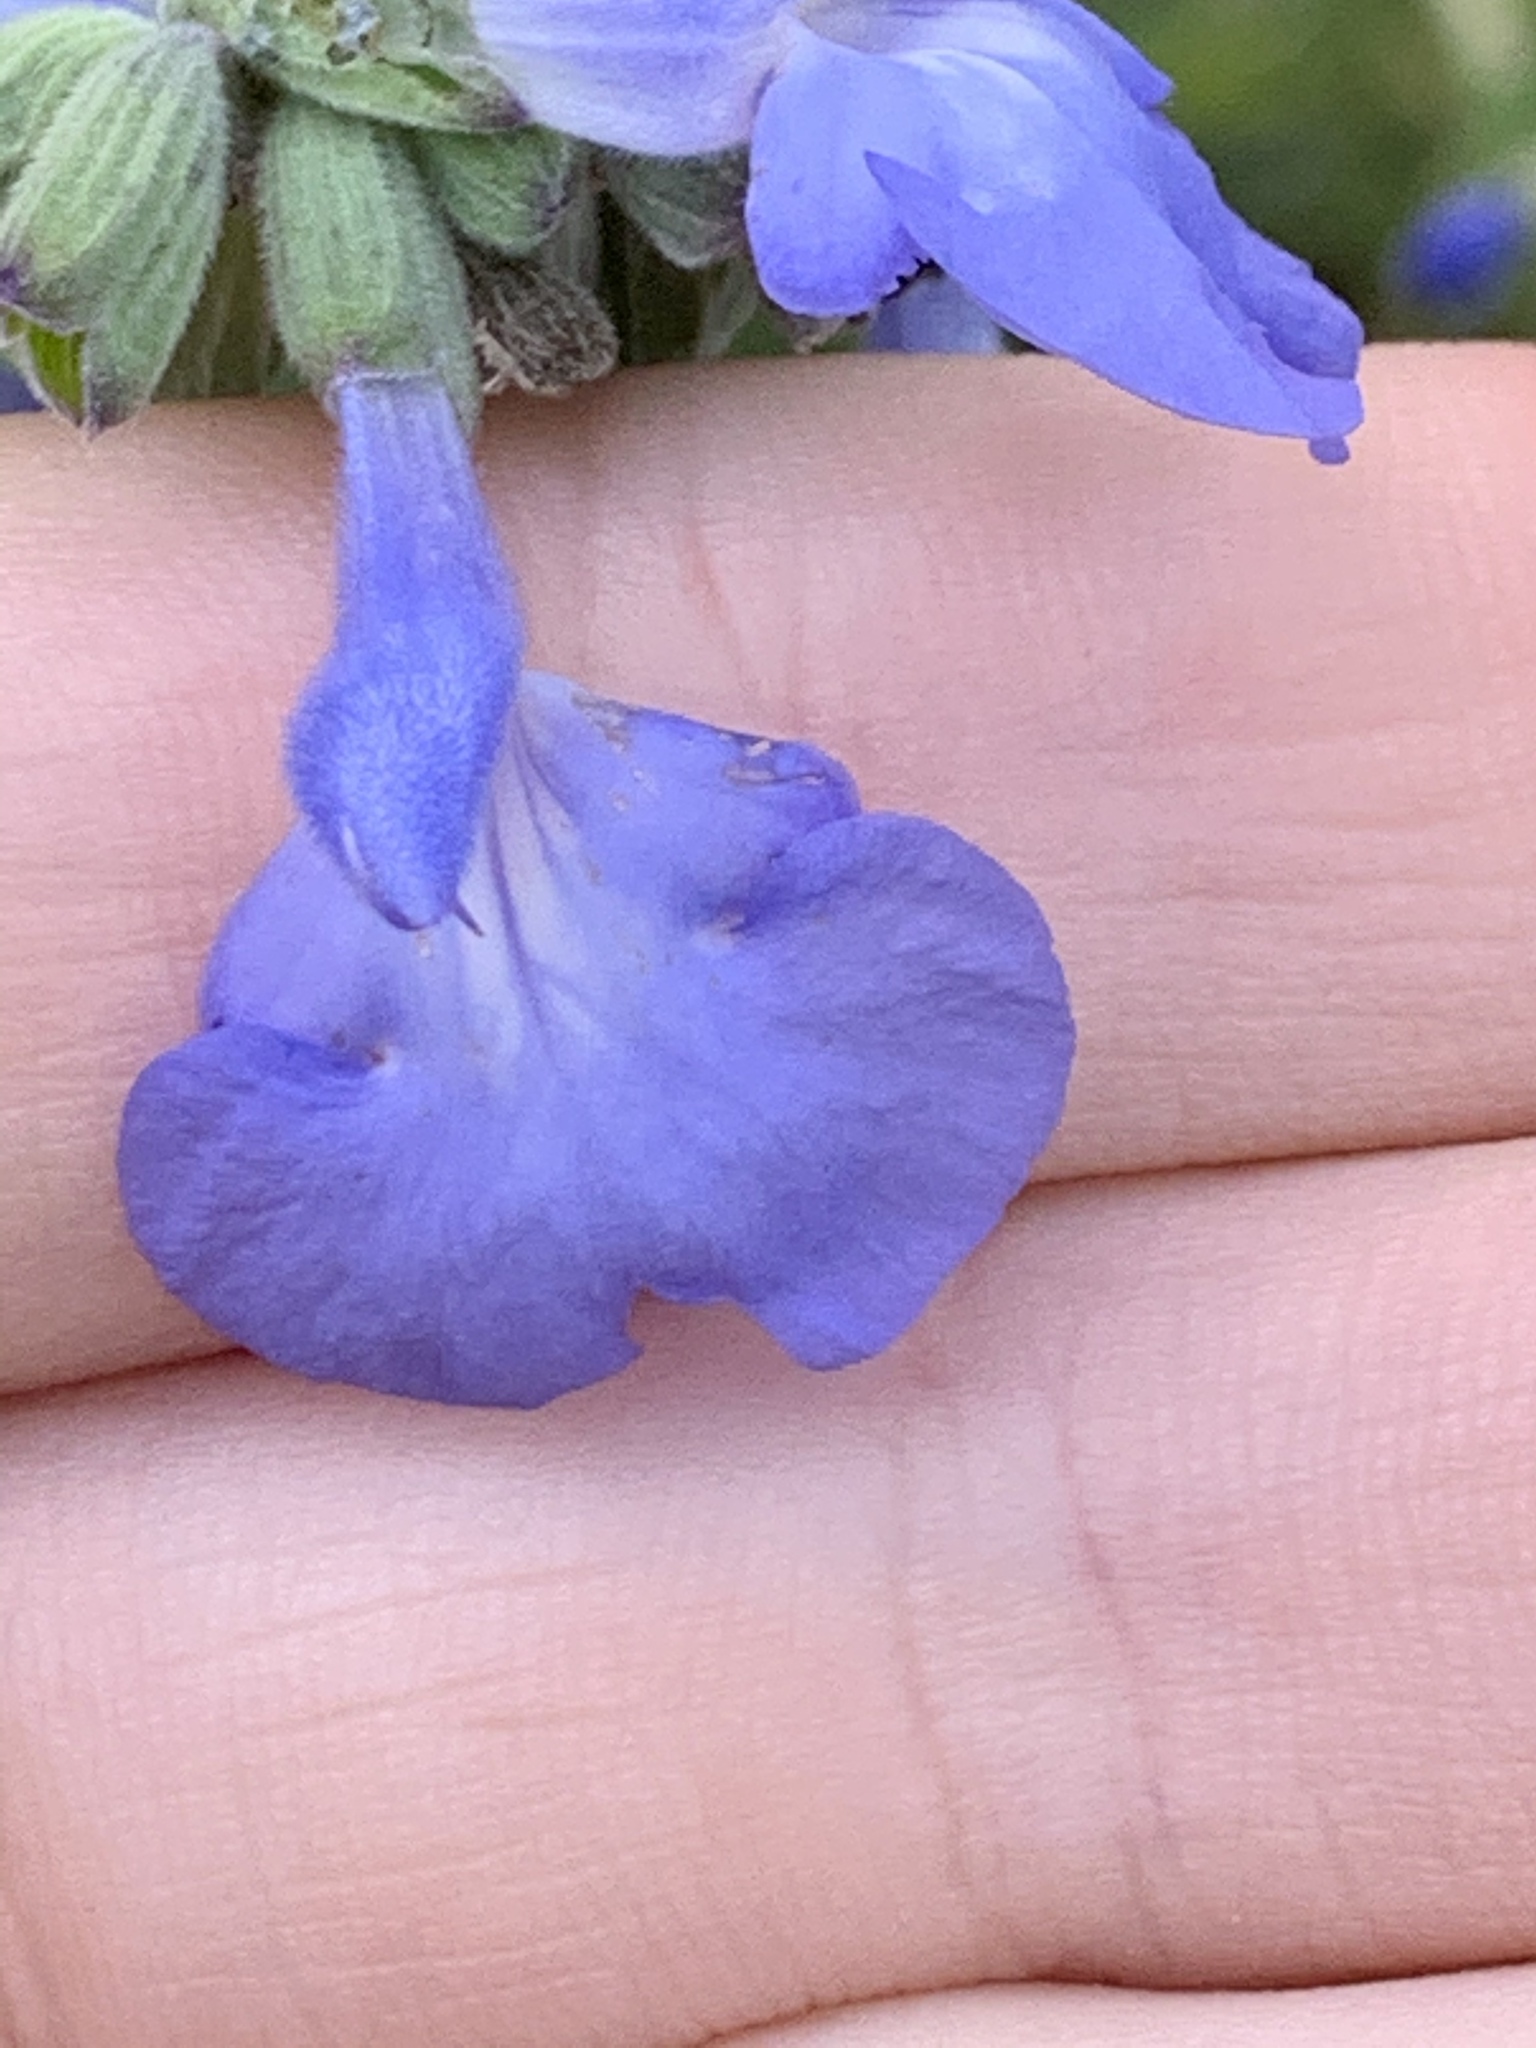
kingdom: Plantae
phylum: Tracheophyta
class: Magnoliopsida
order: Lamiales
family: Lamiaceae
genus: Salvia
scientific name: Salvia azurea
